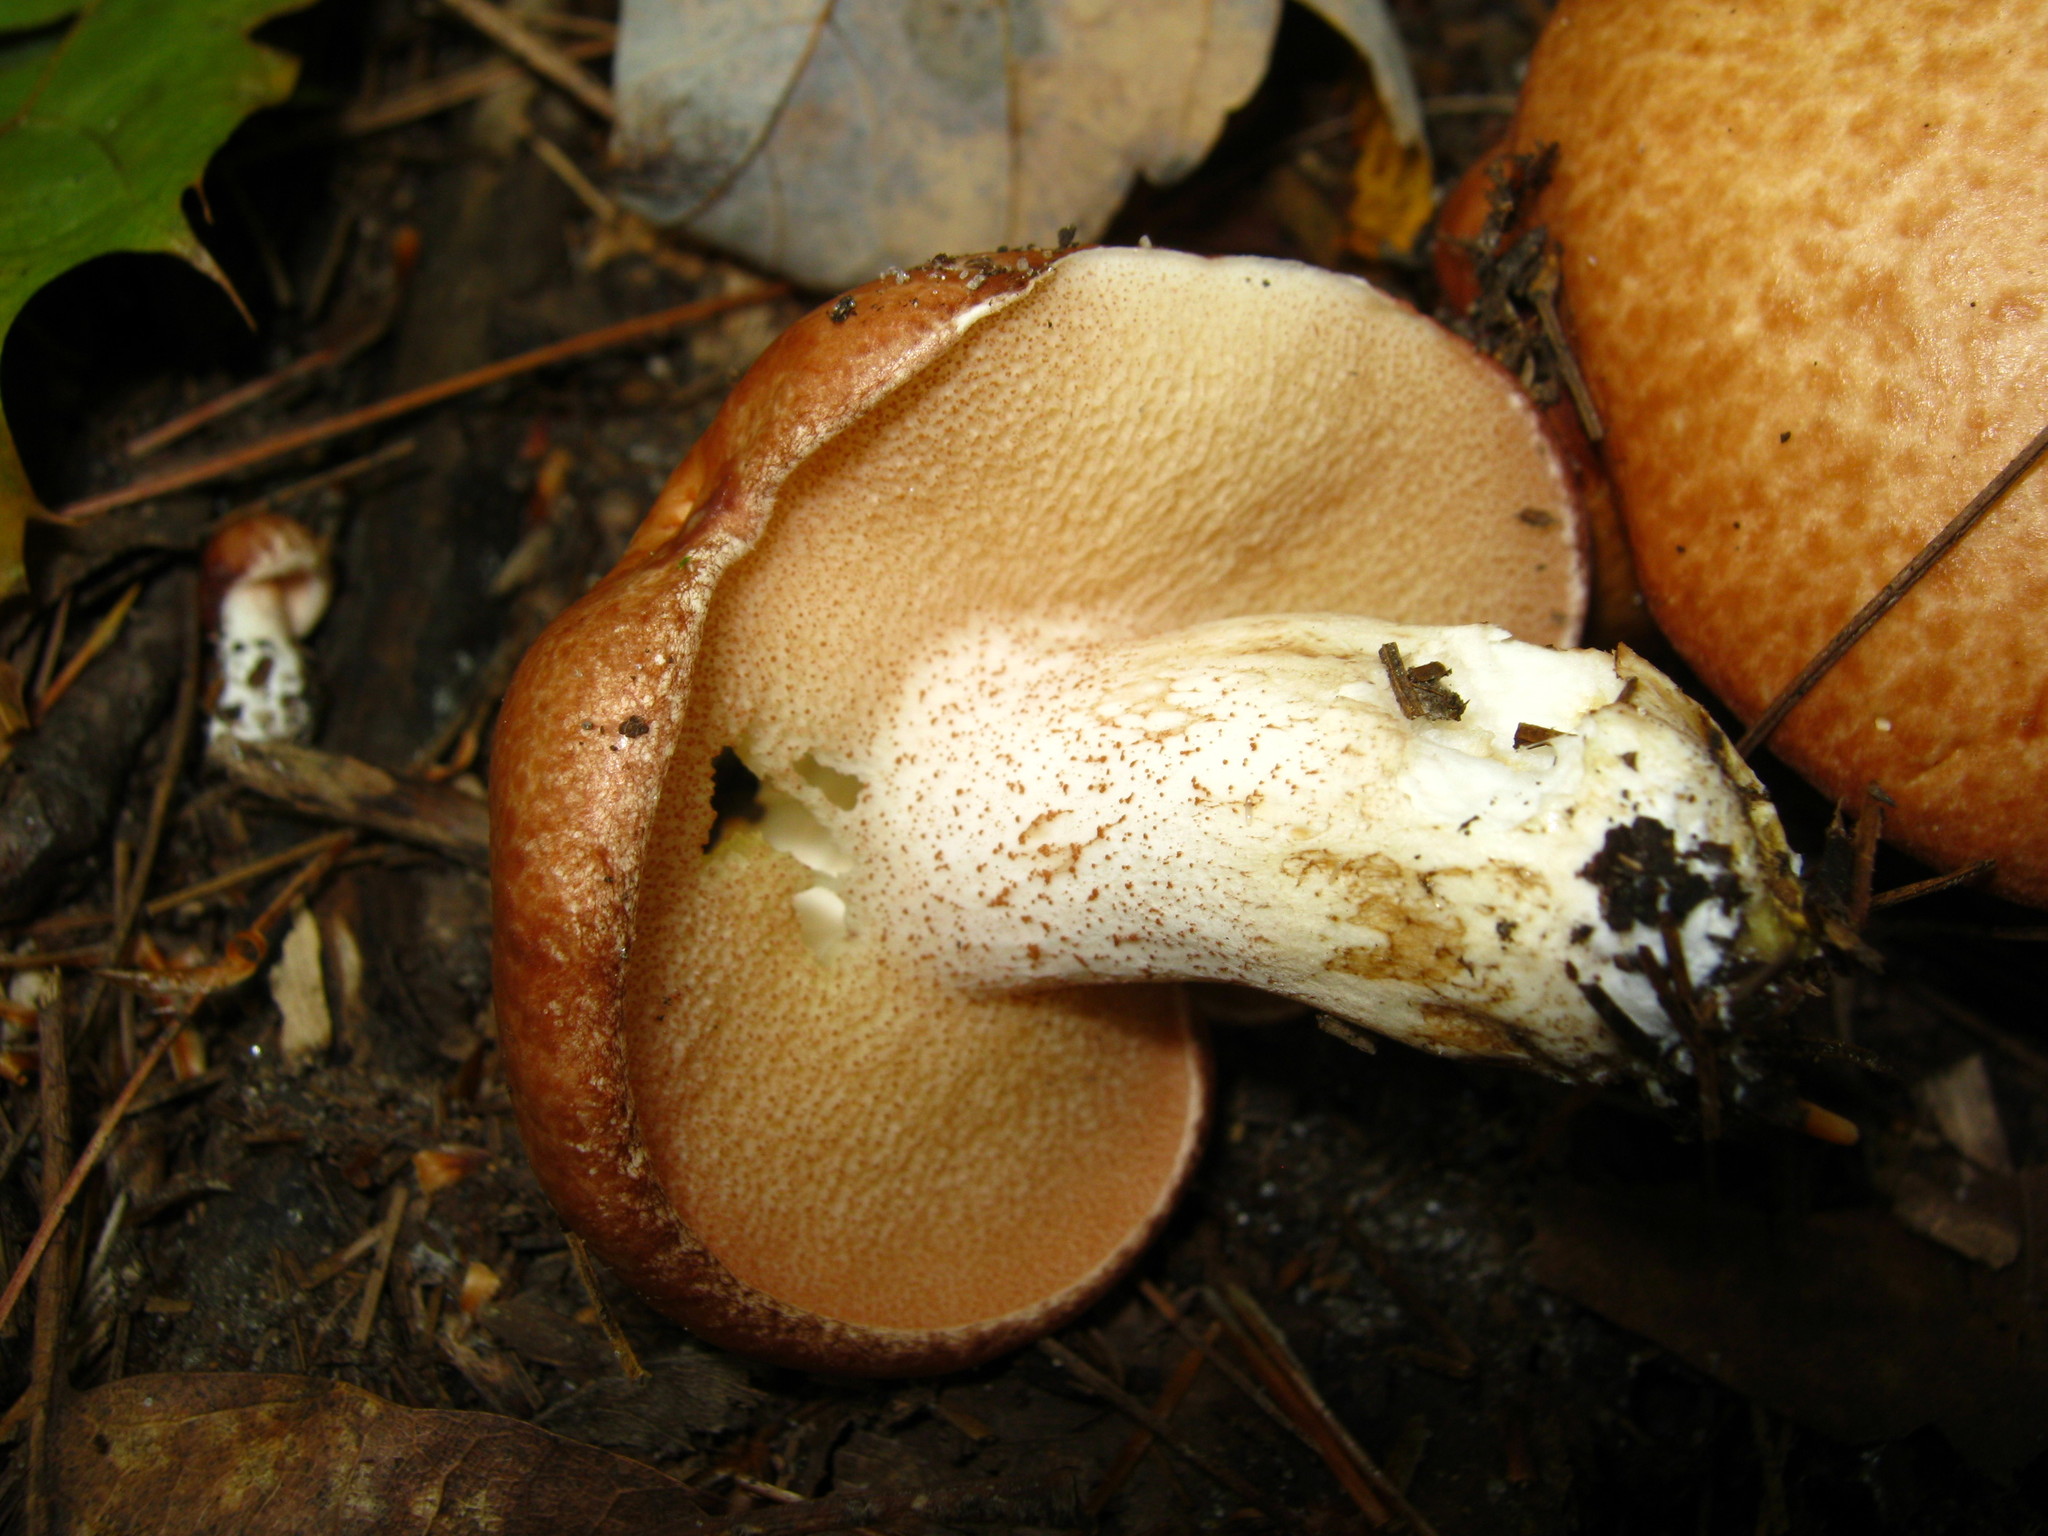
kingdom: Fungi
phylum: Basidiomycota
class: Agaricomycetes
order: Boletales
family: Suillaceae
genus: Fuscoboletinus
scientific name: Fuscoboletinus weaverae
